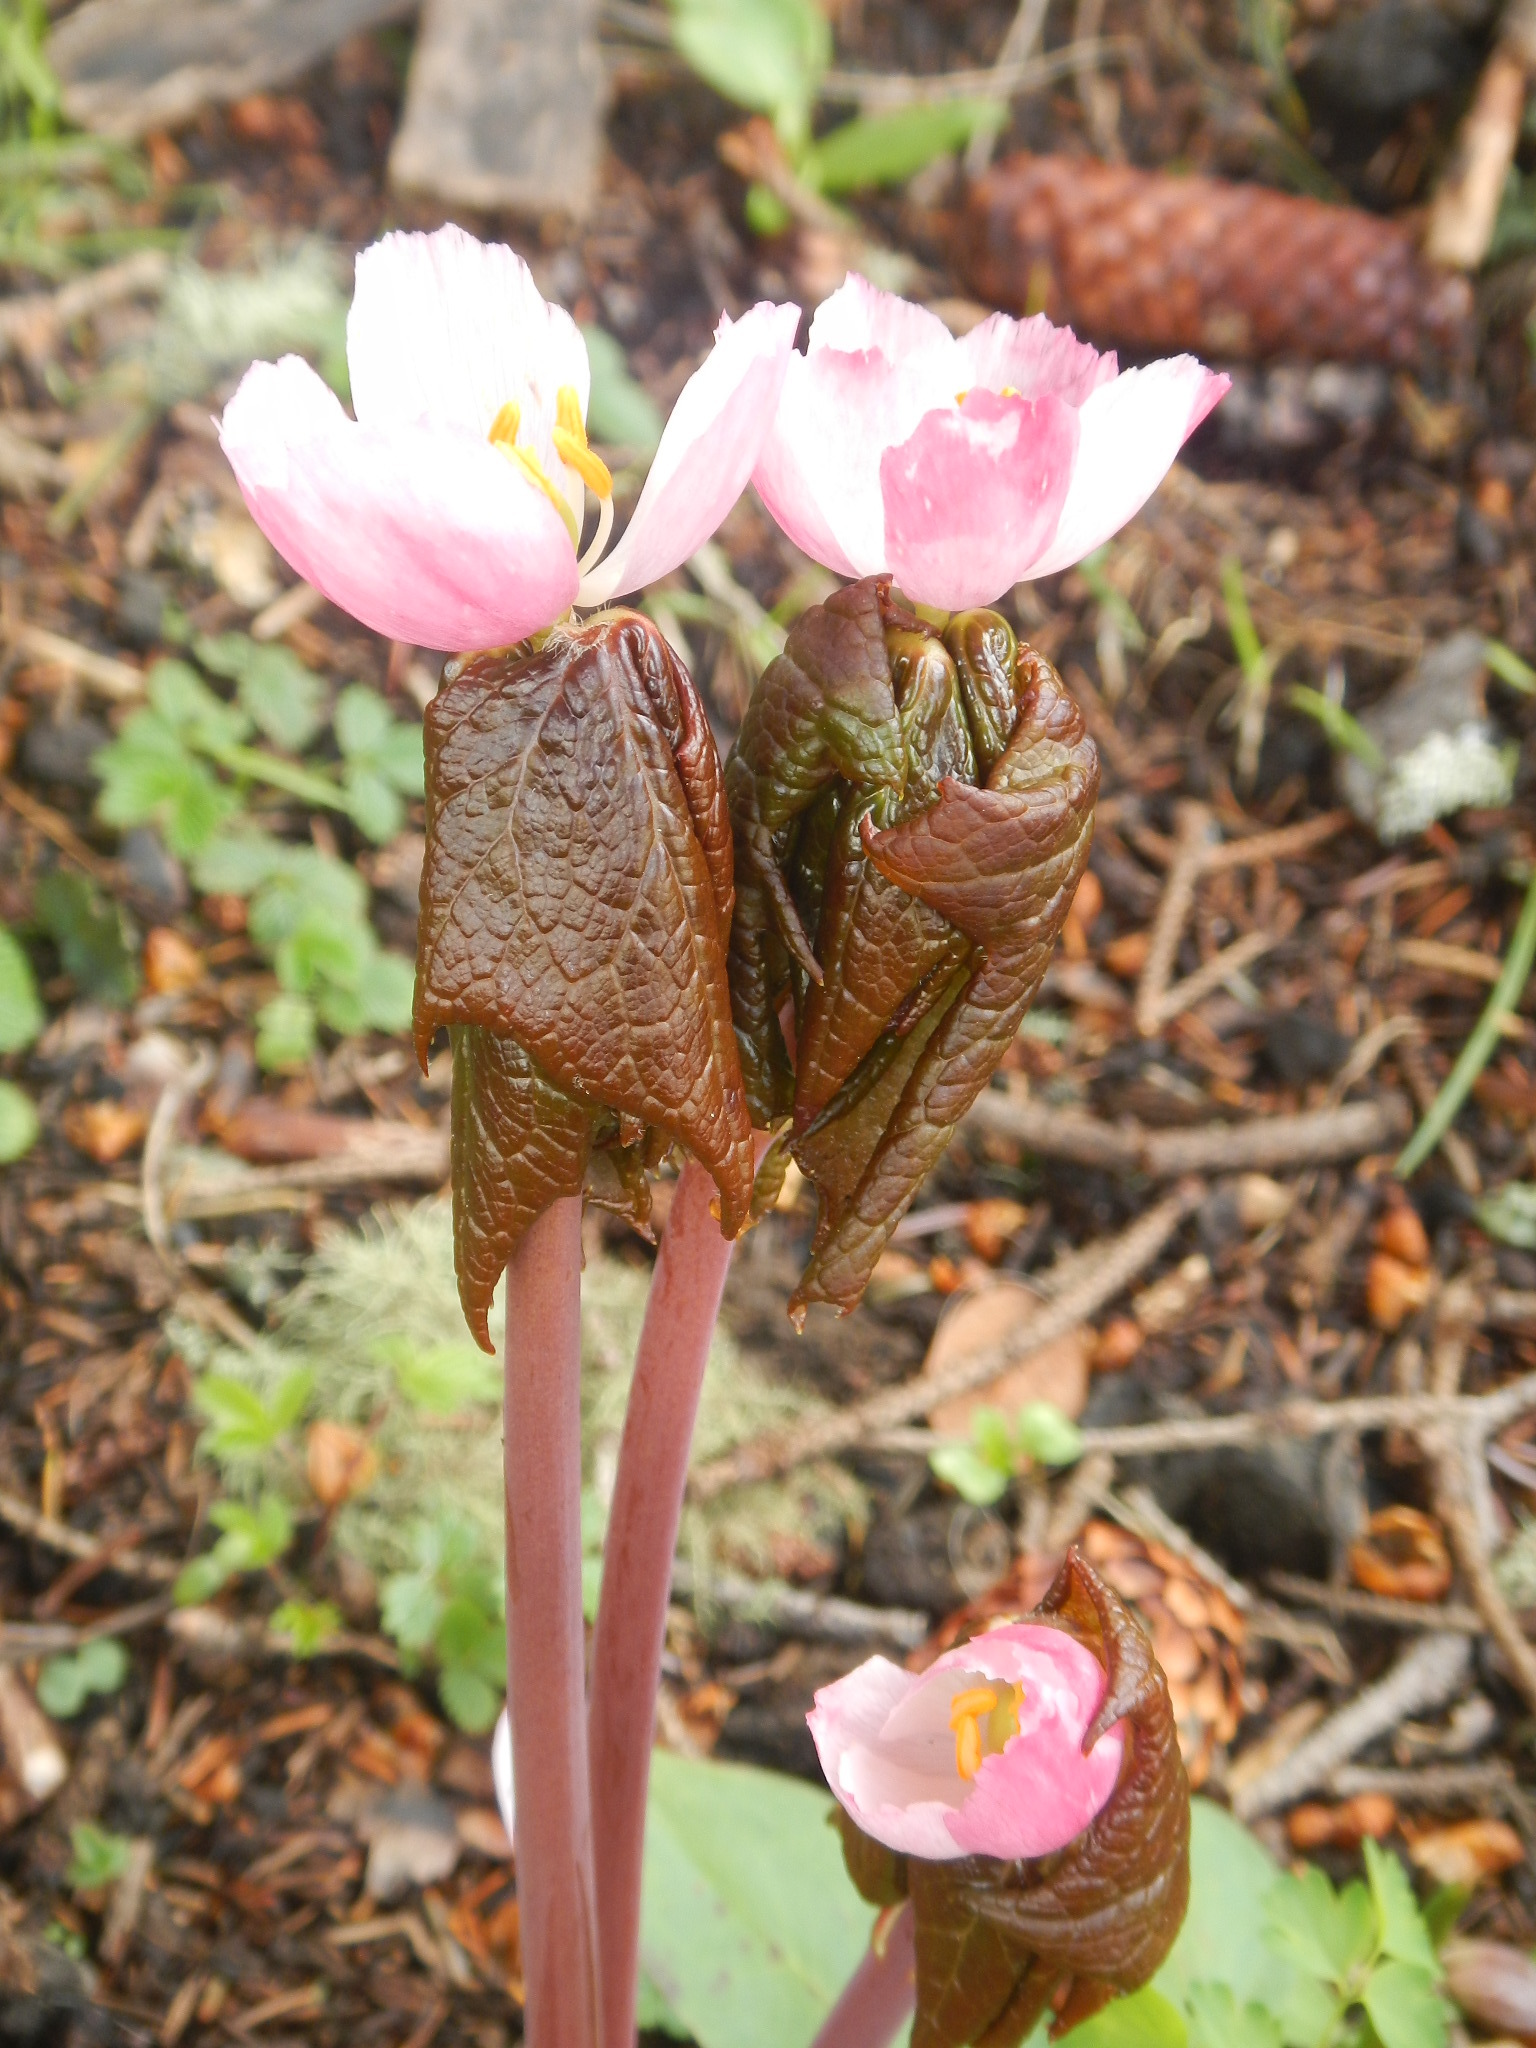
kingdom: Plantae
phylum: Tracheophyta
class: Magnoliopsida
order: Ranunculales
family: Berberidaceae
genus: Sinopodophyllum
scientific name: Sinopodophyllum hexandrum
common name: Himalayan may-apple
